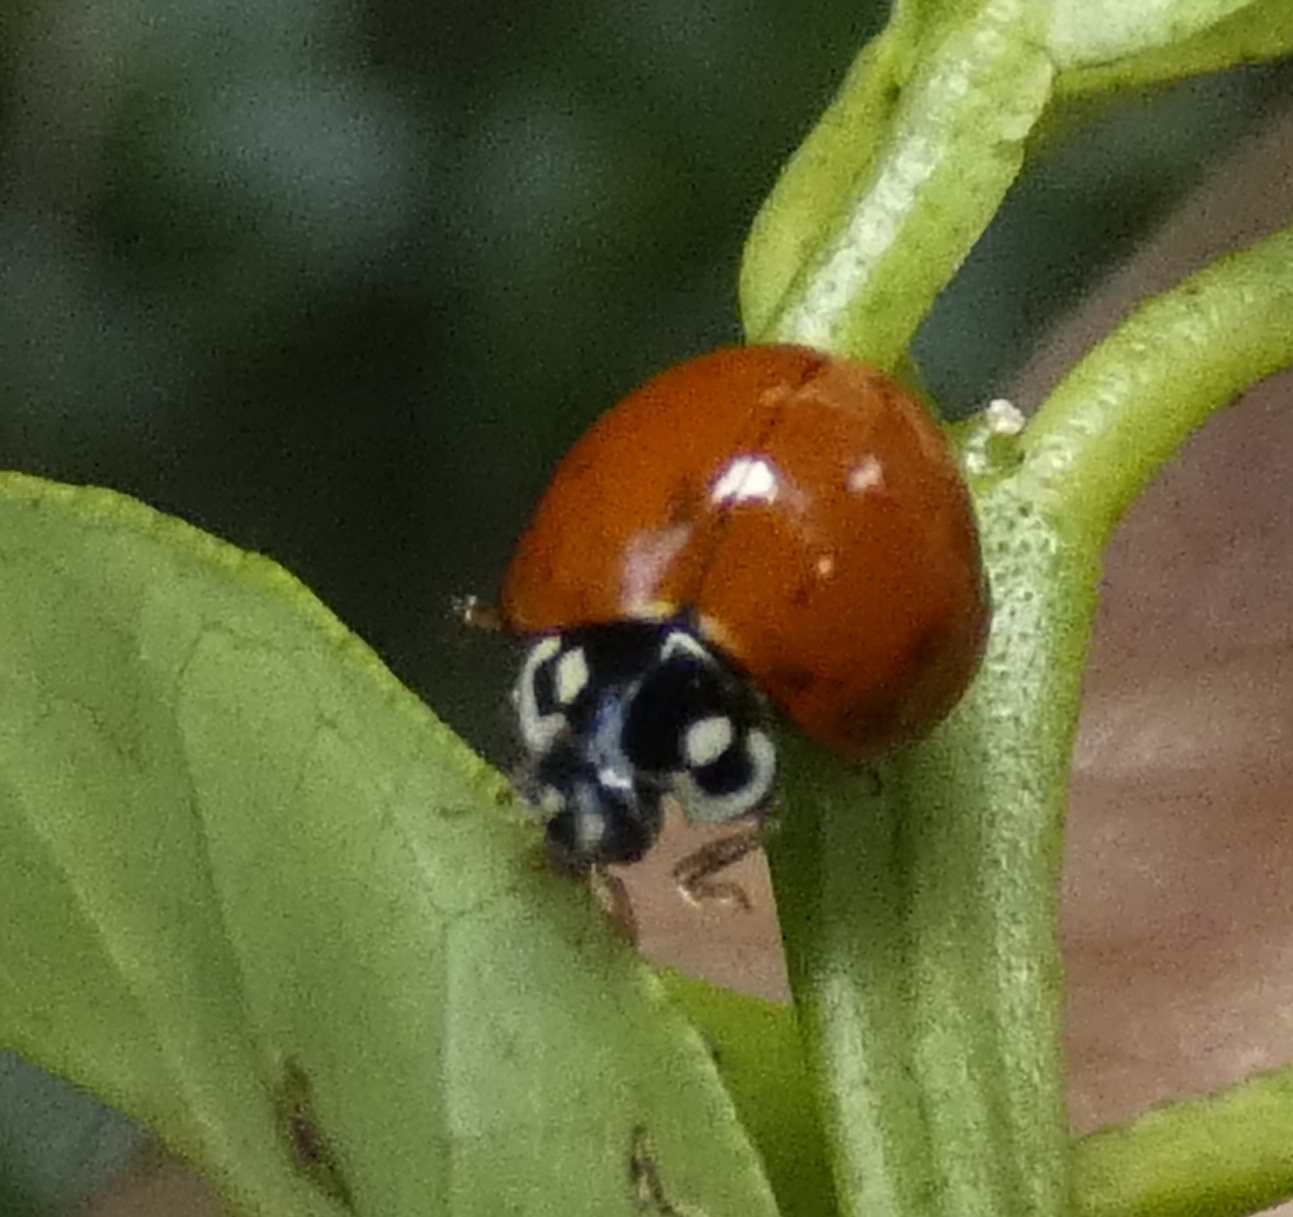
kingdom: Animalia
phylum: Arthropoda
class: Insecta
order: Coleoptera
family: Coccinellidae
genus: Cycloneda
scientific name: Cycloneda sanguinea
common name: Ladybird beetle
